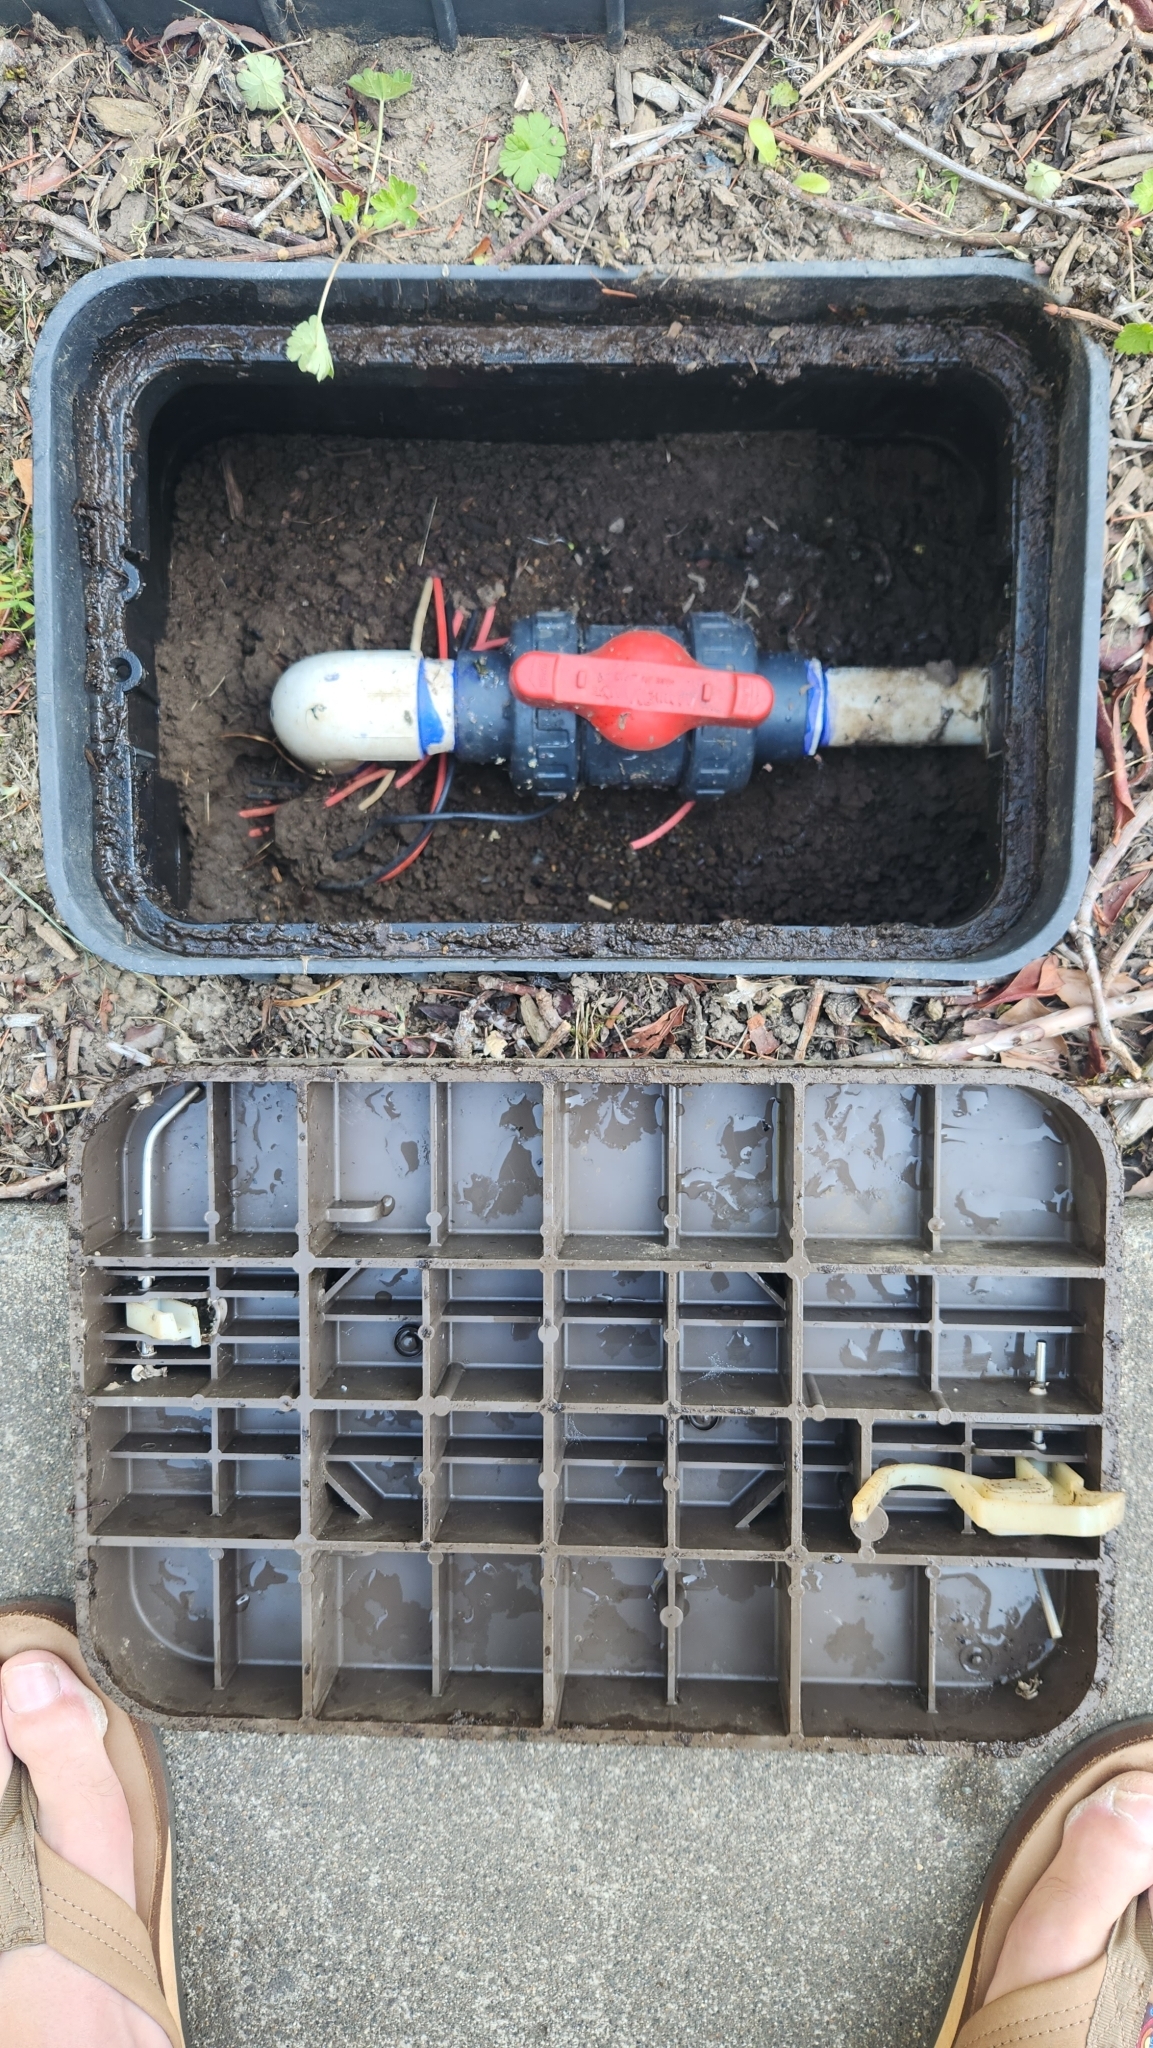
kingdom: Animalia
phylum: Mollusca
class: Gastropoda
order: Stylommatophora
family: Limacidae
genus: Limacus
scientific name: Limacus flavus
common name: Yellow gardenslug
